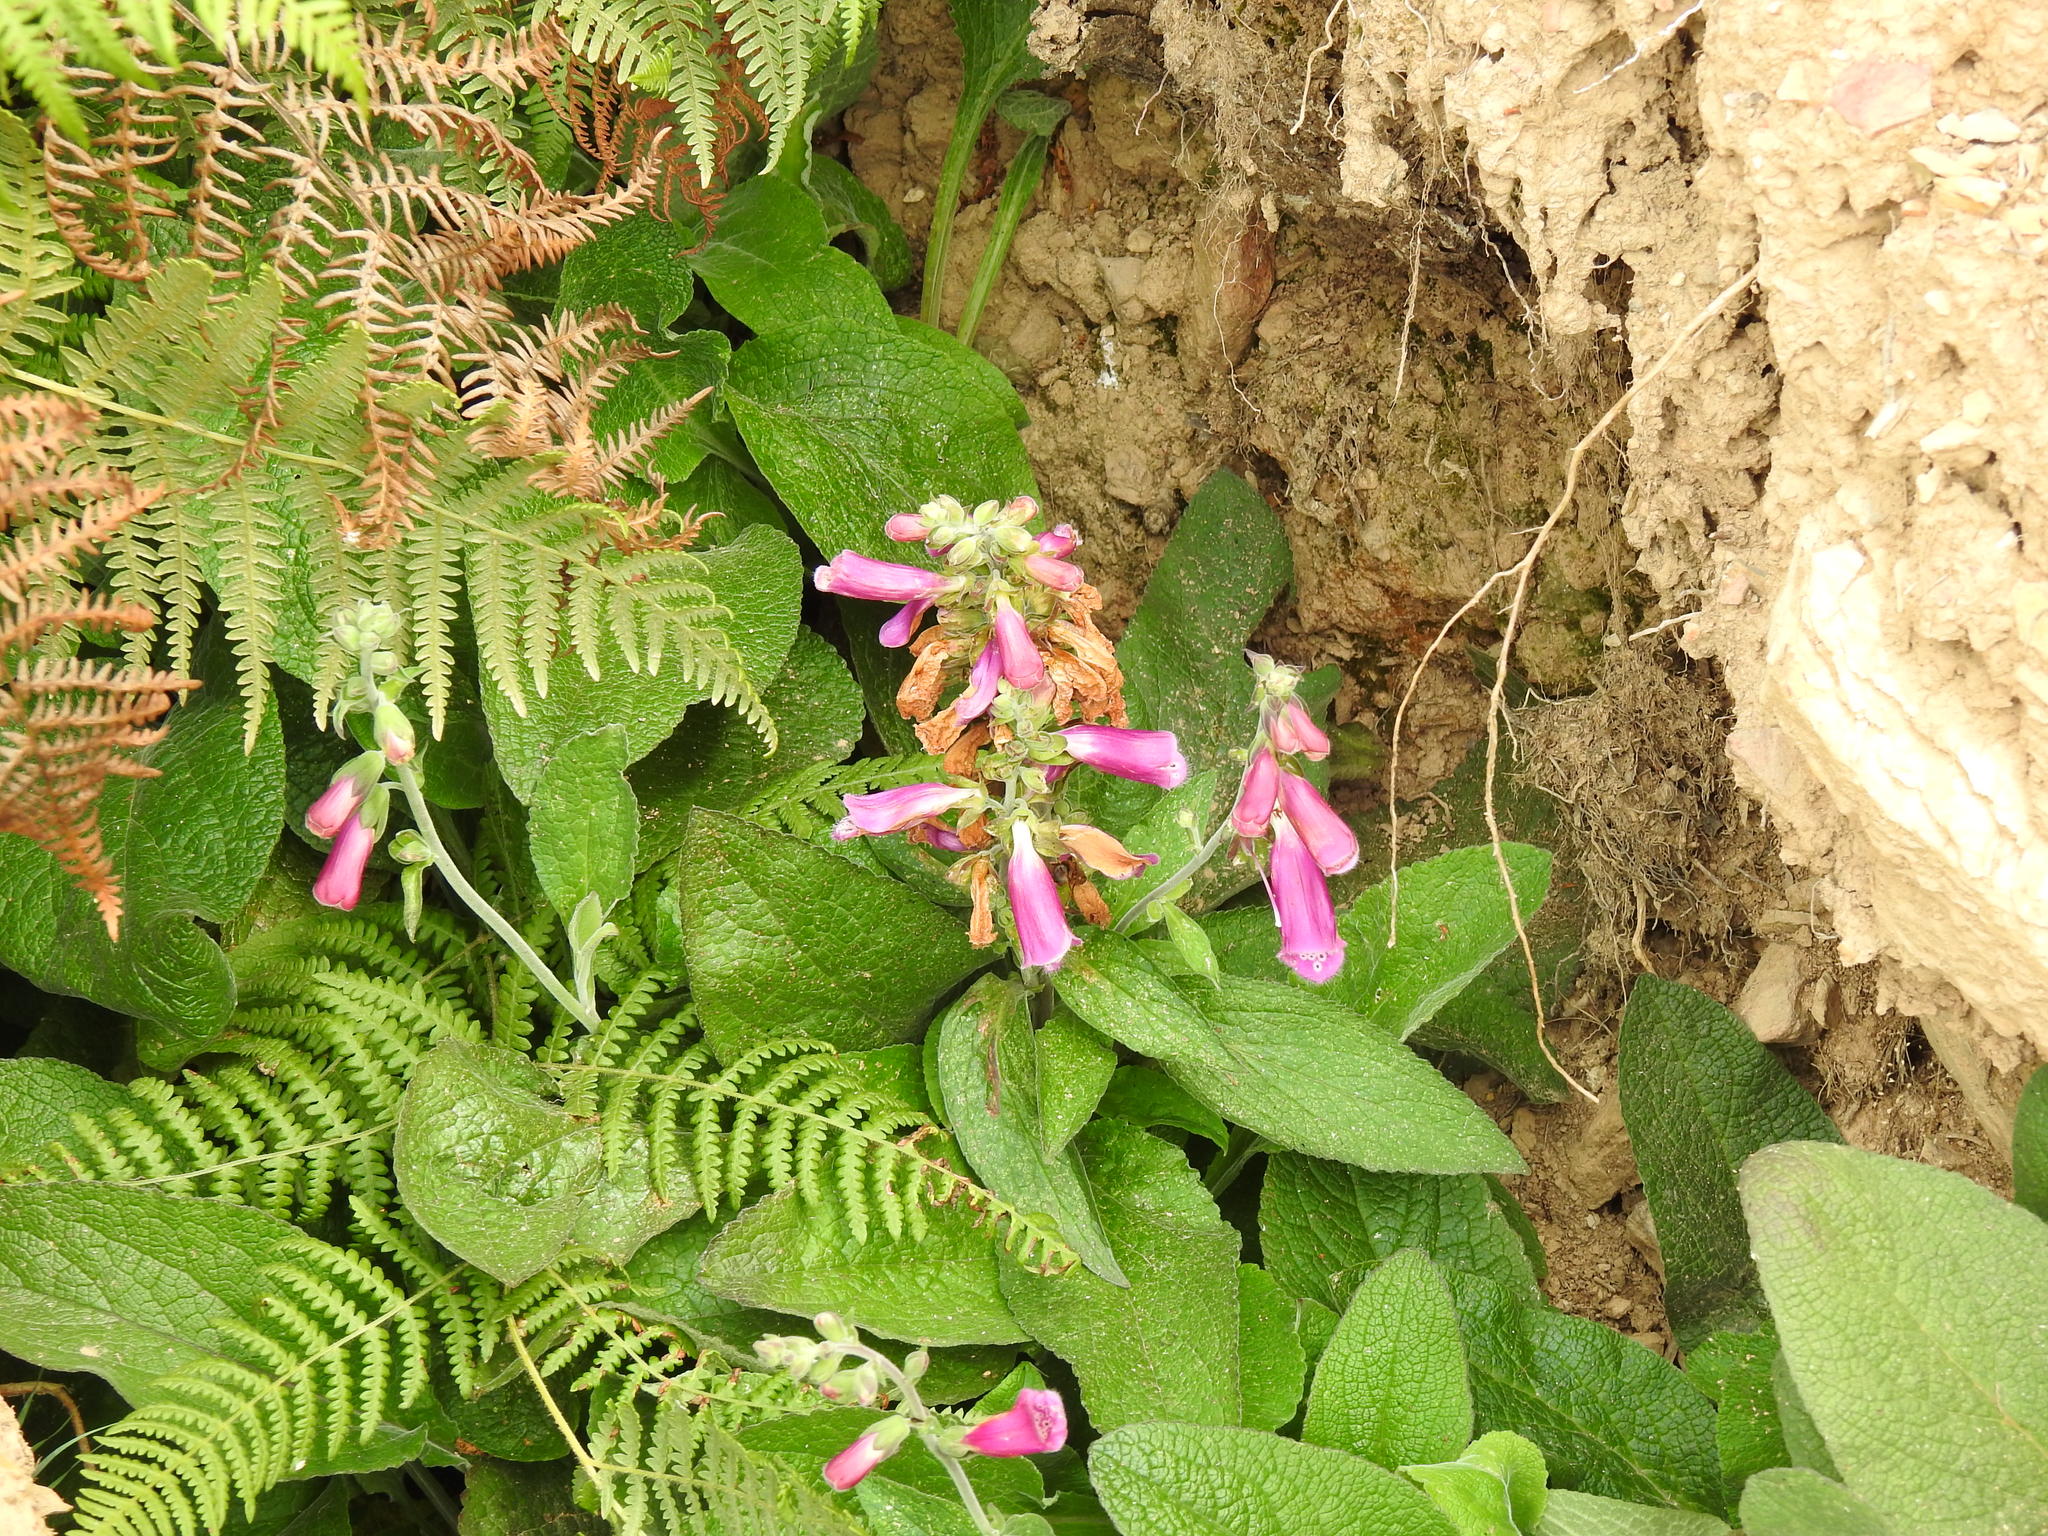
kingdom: Plantae
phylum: Tracheophyta
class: Magnoliopsida
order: Lamiales
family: Plantaginaceae
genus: Digitalis
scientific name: Digitalis purpurea
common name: Foxglove
